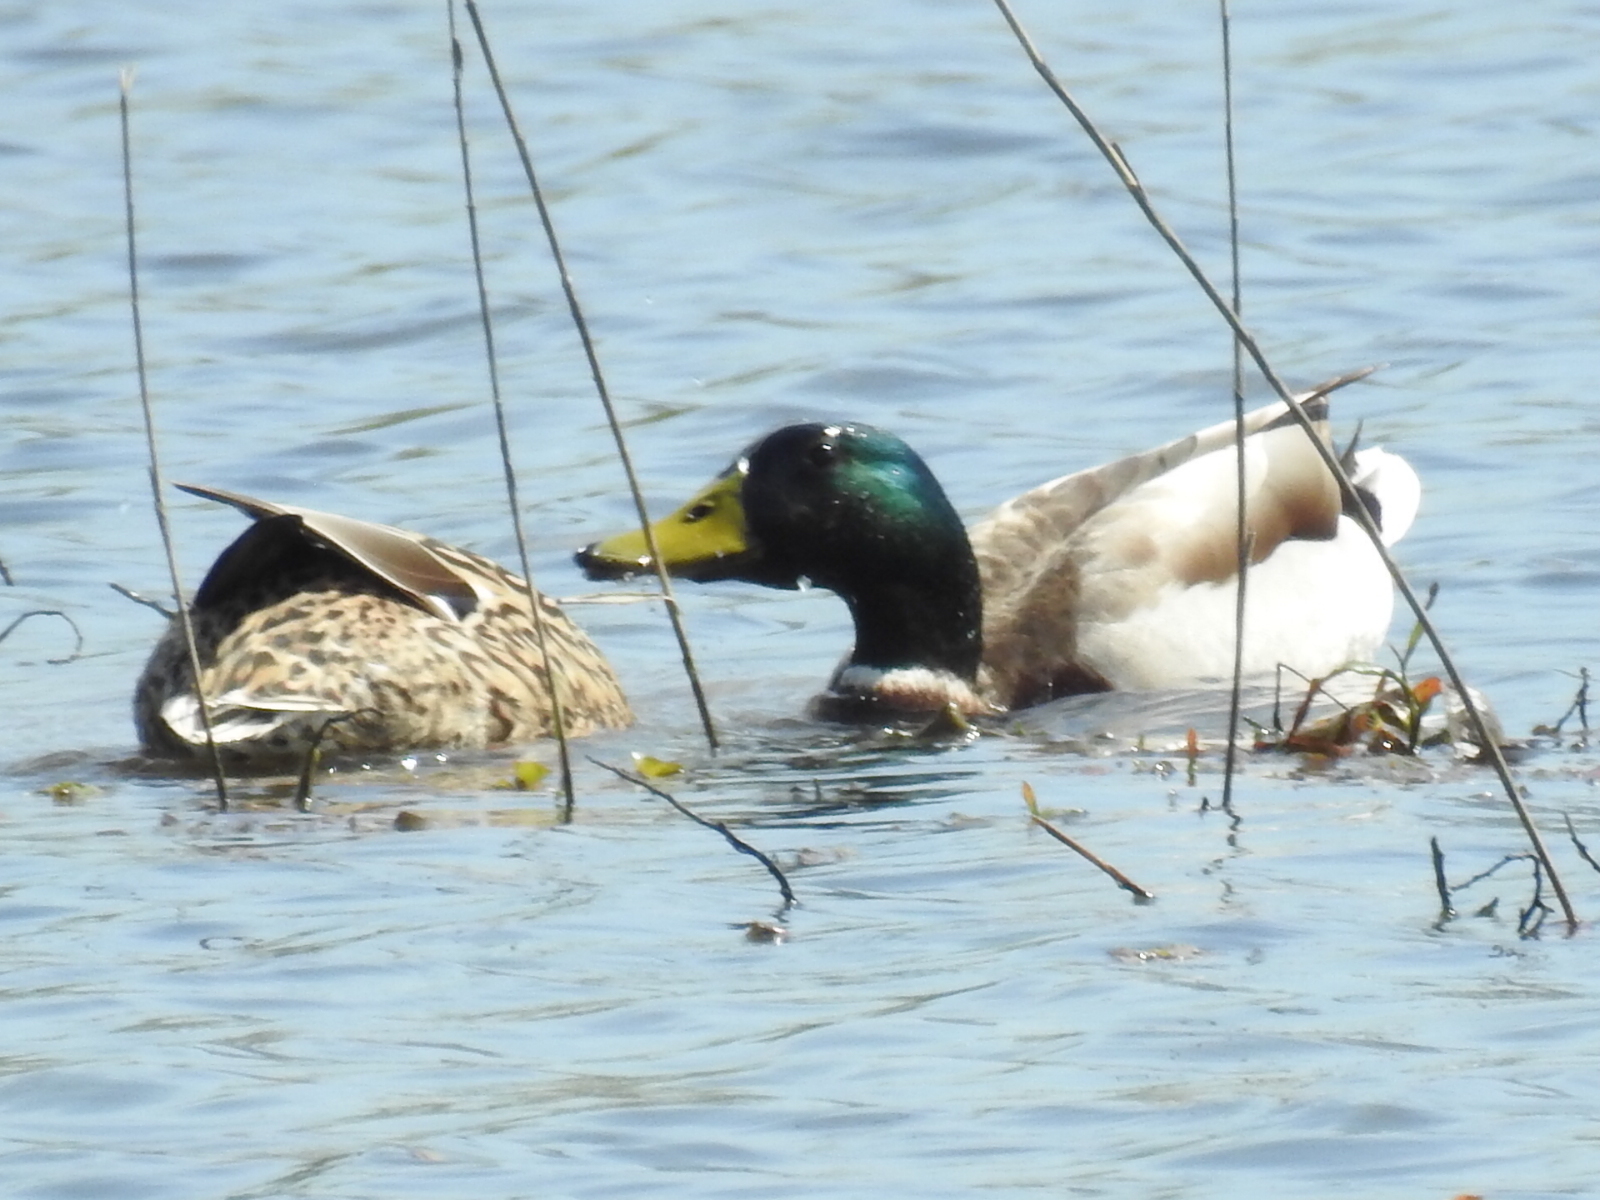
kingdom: Animalia
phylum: Chordata
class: Aves
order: Anseriformes
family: Anatidae
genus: Anas
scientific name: Anas platyrhynchos
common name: Mallard
